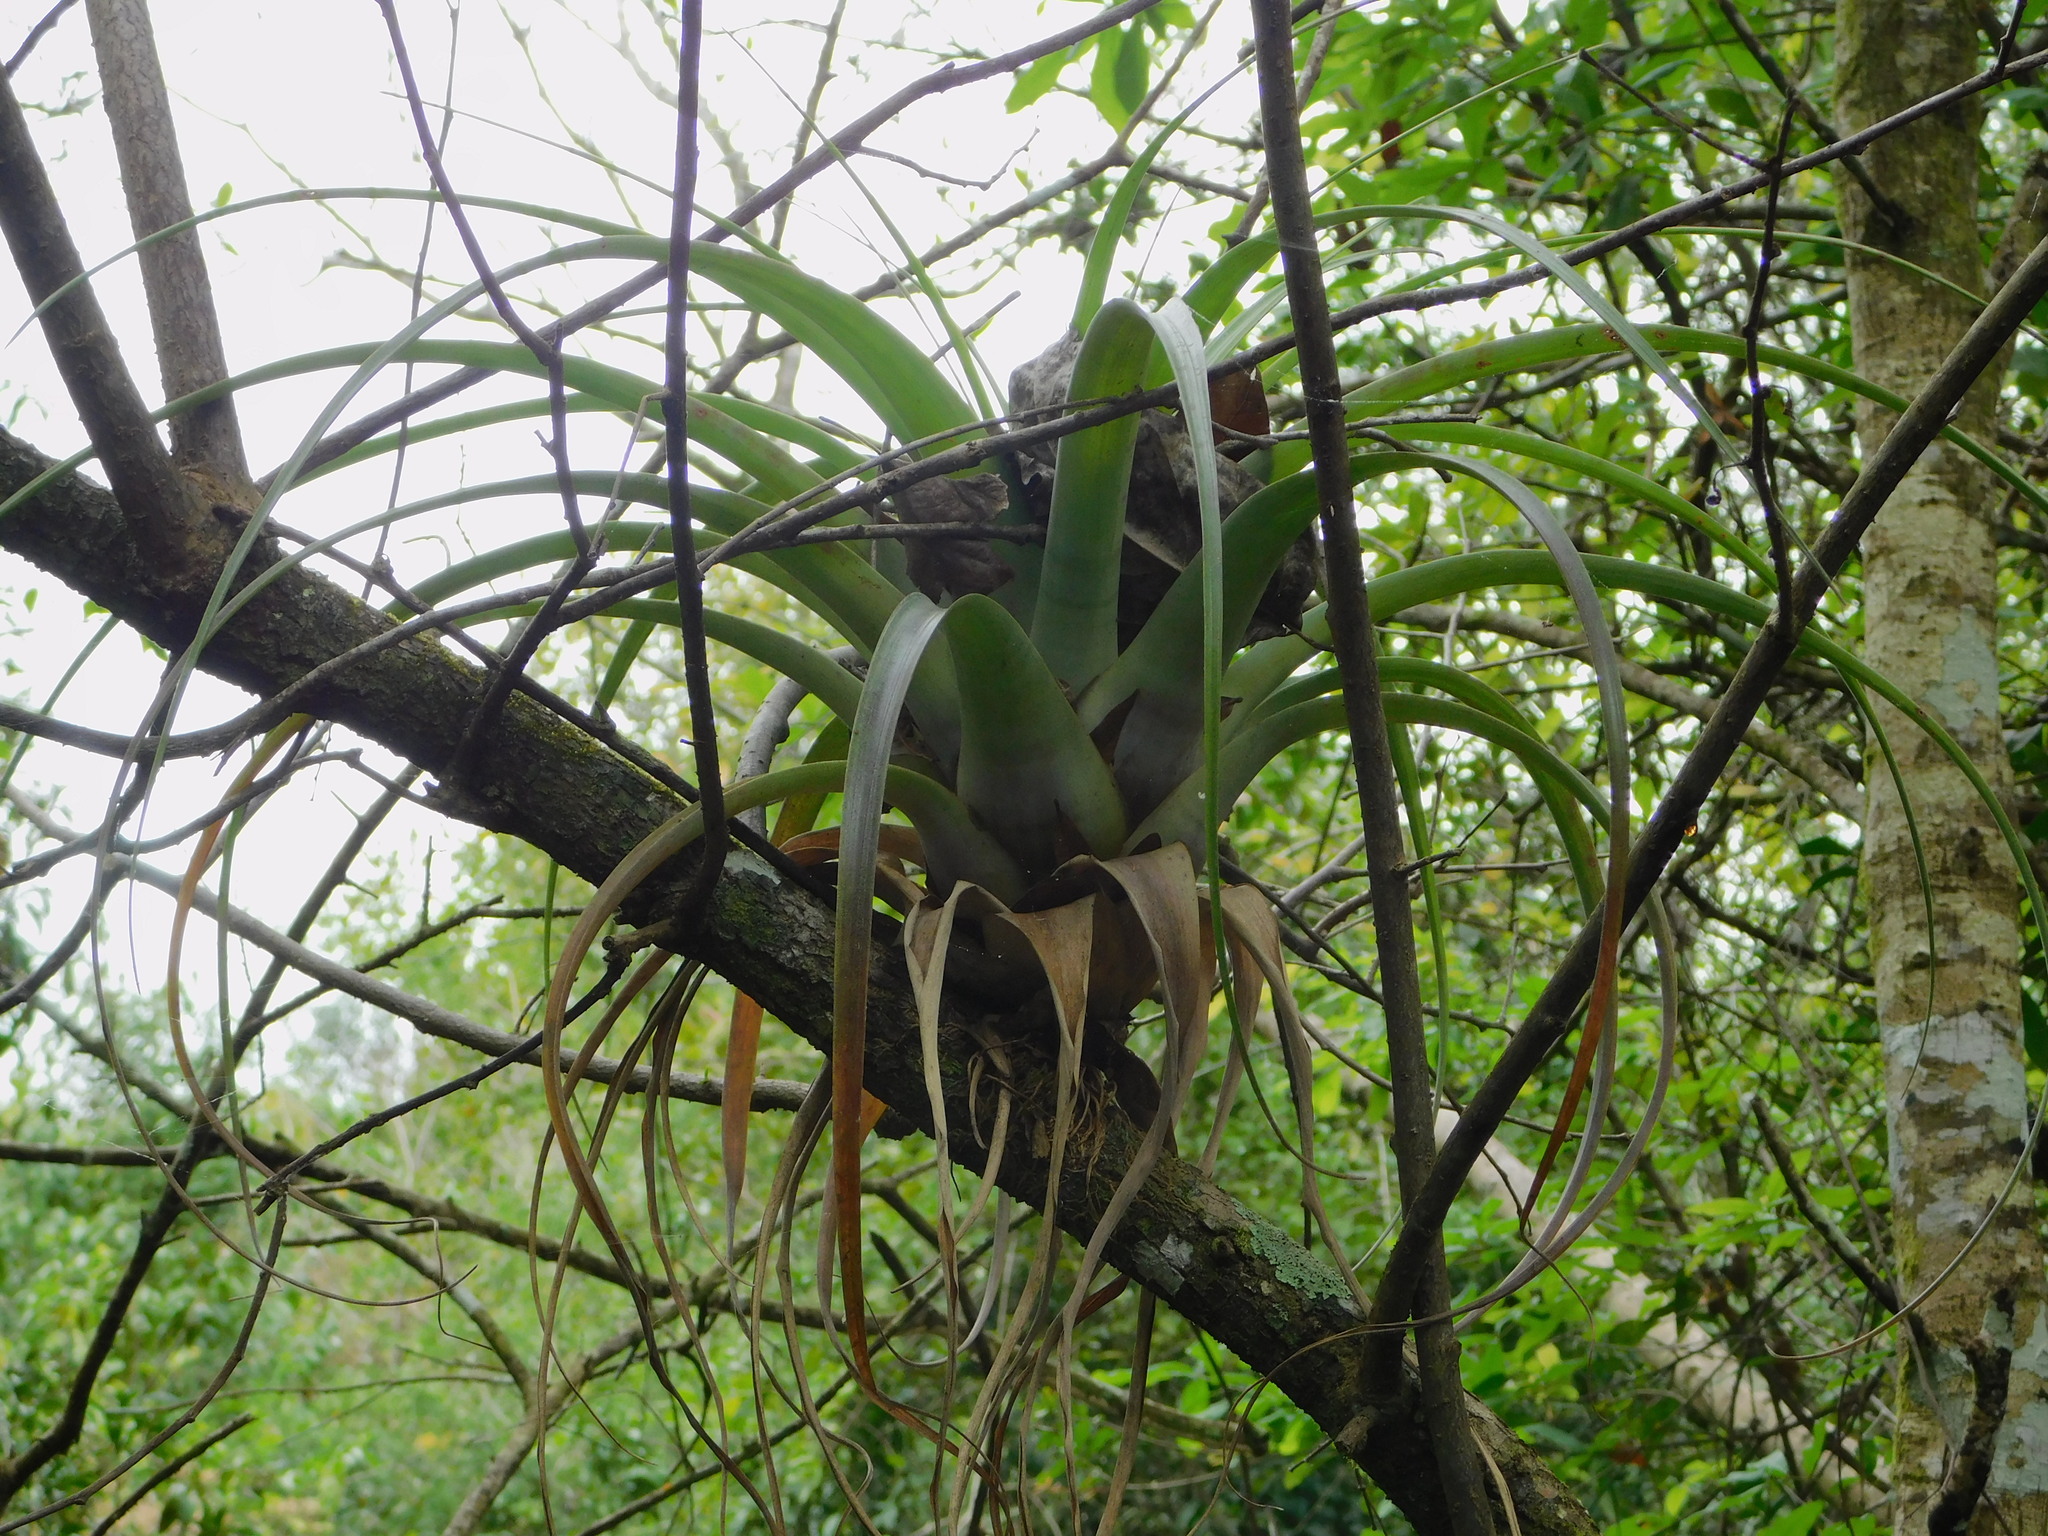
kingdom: Plantae
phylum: Tracheophyta
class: Liliopsida
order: Poales
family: Bromeliaceae
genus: Tillandsia
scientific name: Tillandsia utriculata
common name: Wild pine
